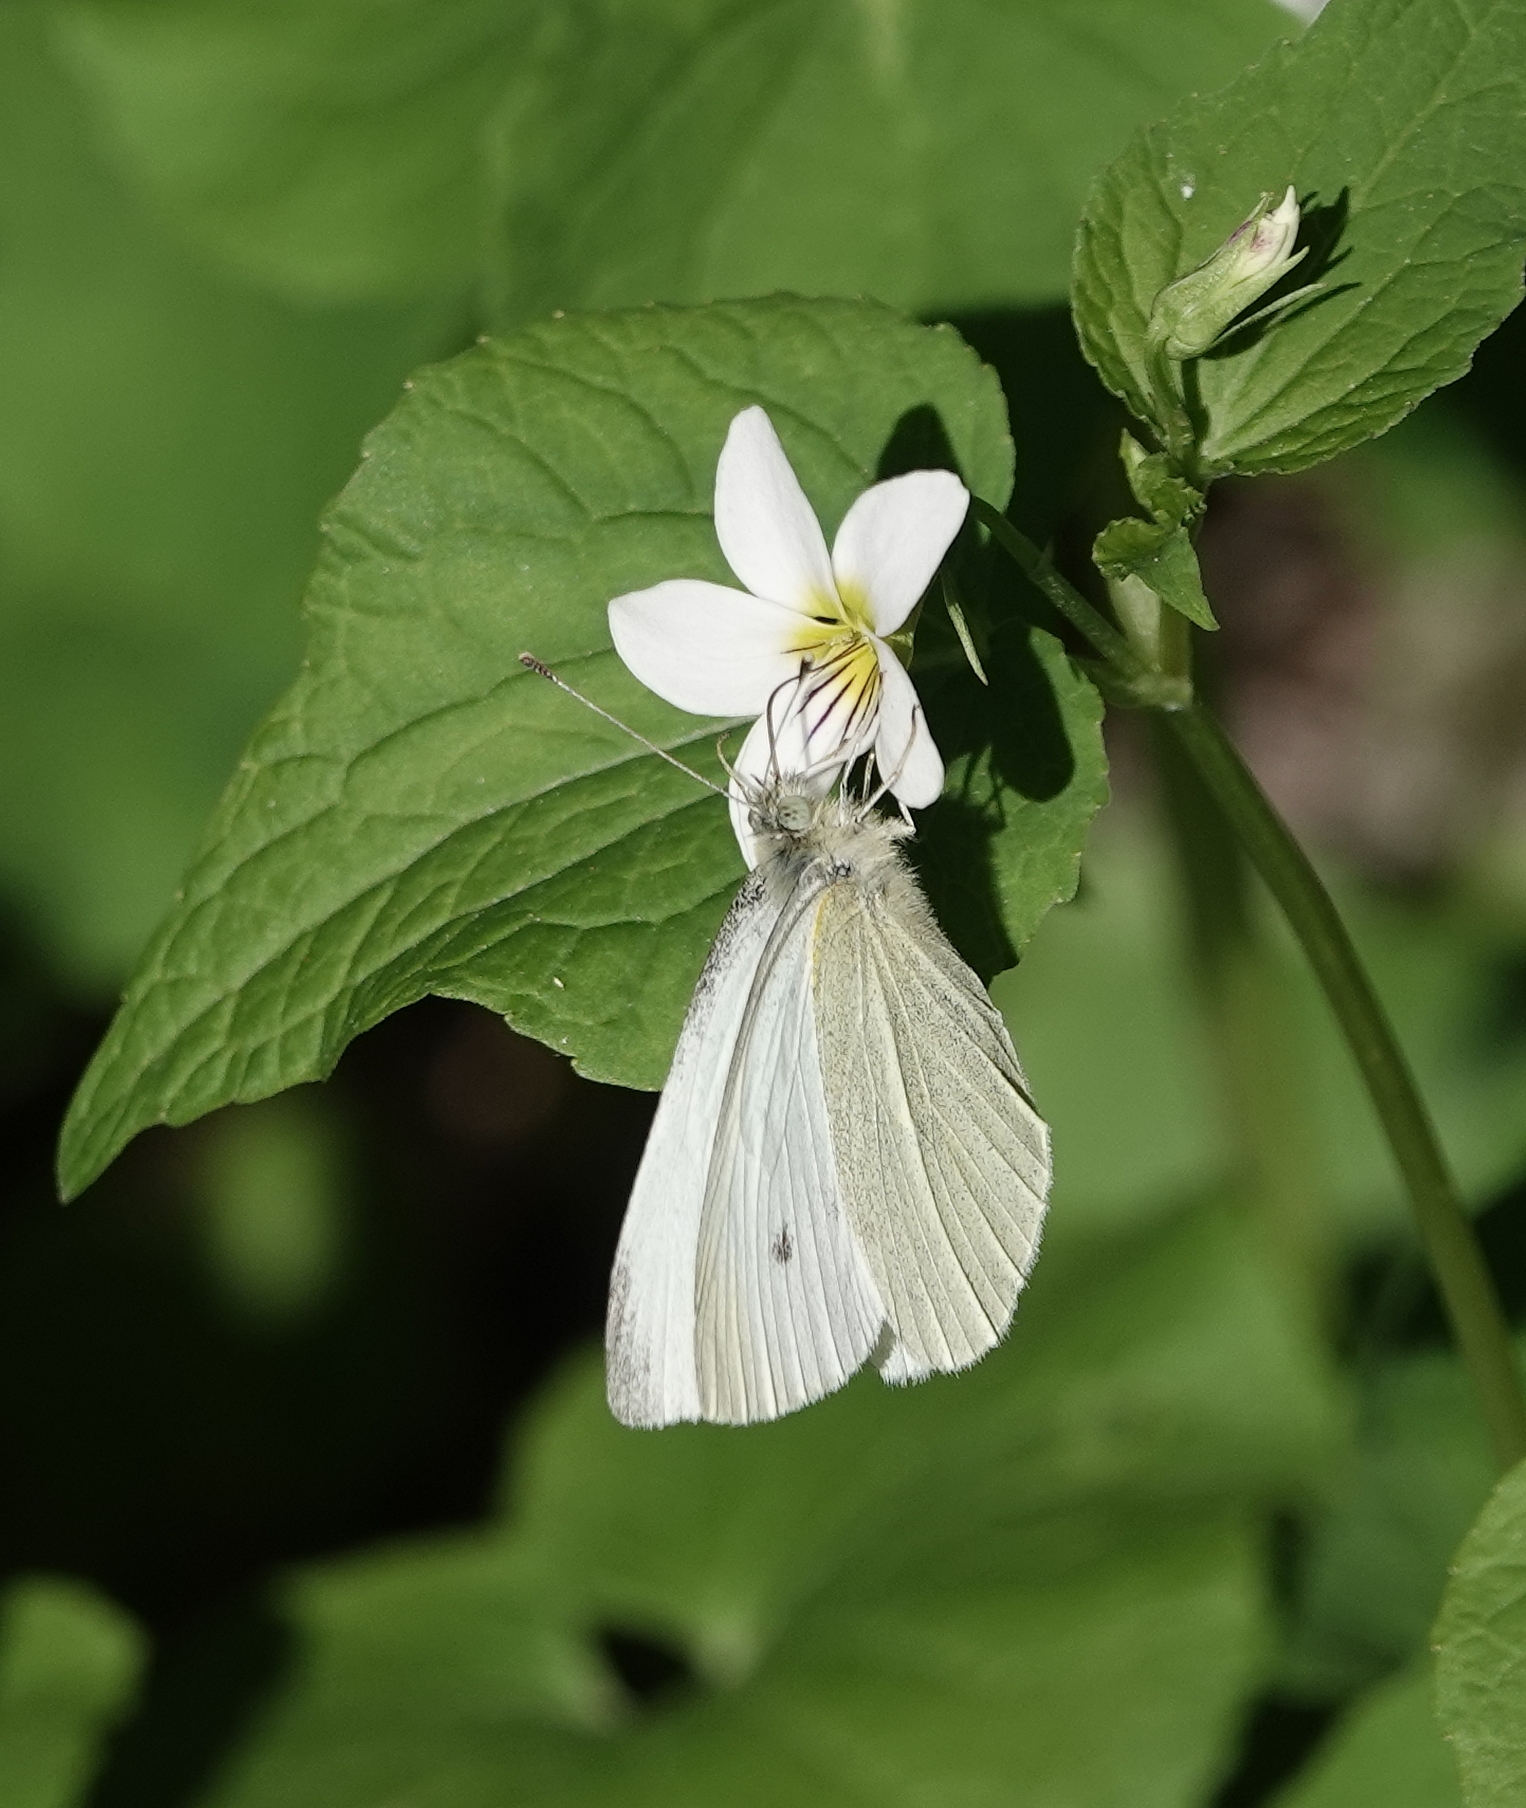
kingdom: Animalia
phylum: Arthropoda
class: Insecta
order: Lepidoptera
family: Pieridae
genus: Pieris
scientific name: Pieris rapae
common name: Small white
